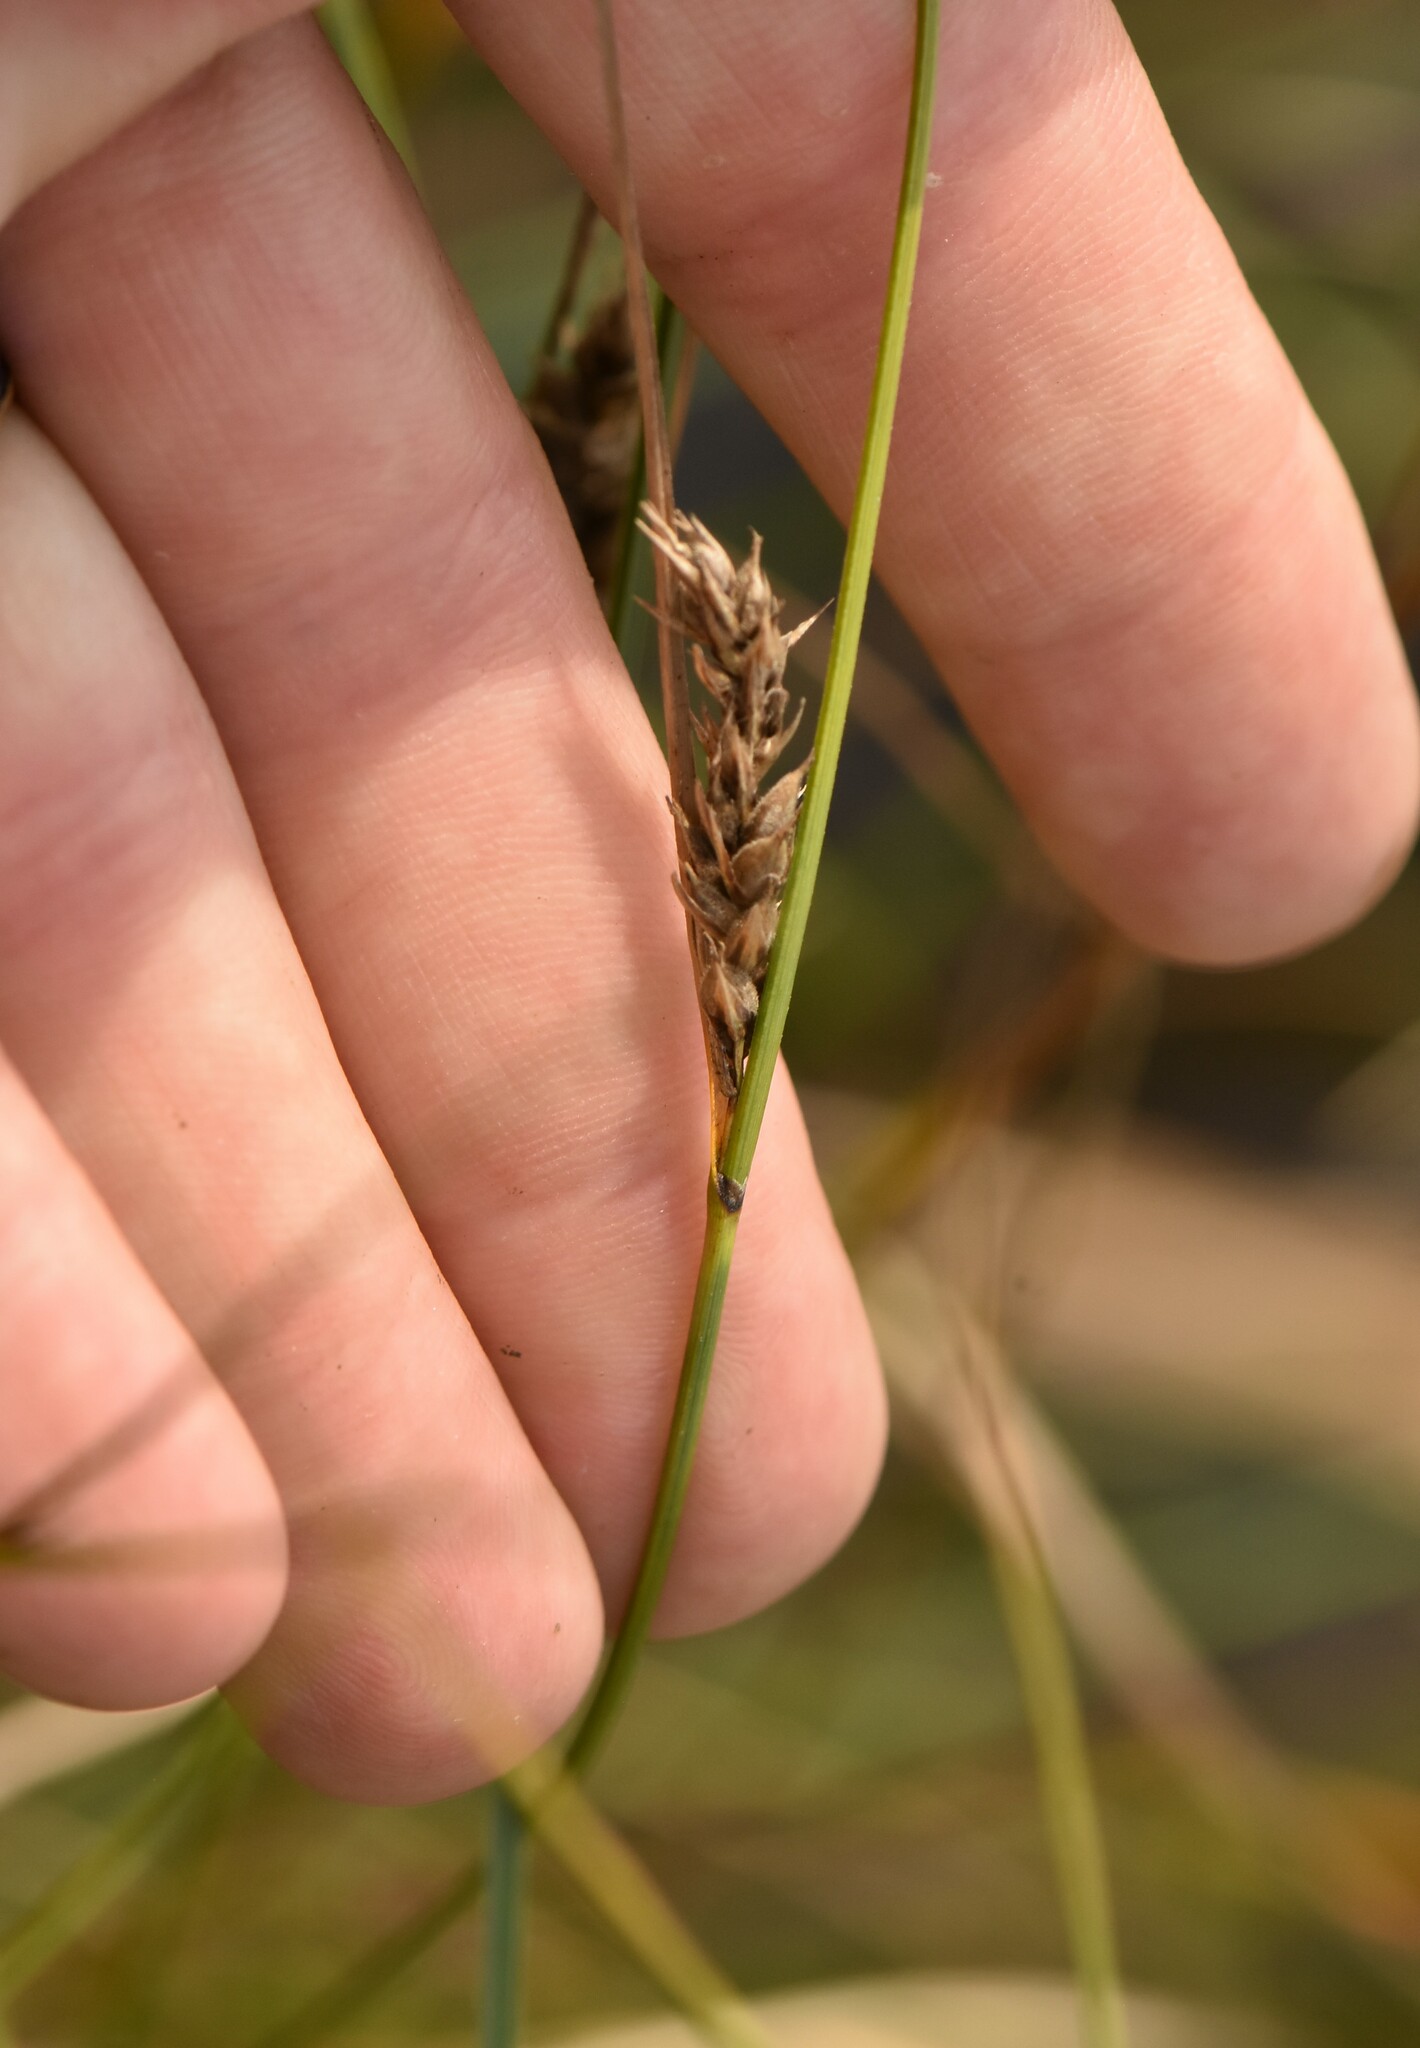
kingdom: Plantae
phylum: Tracheophyta
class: Liliopsida
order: Poales
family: Cyperaceae
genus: Carex
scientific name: Carex lasiocarpa
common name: Slender sedge
